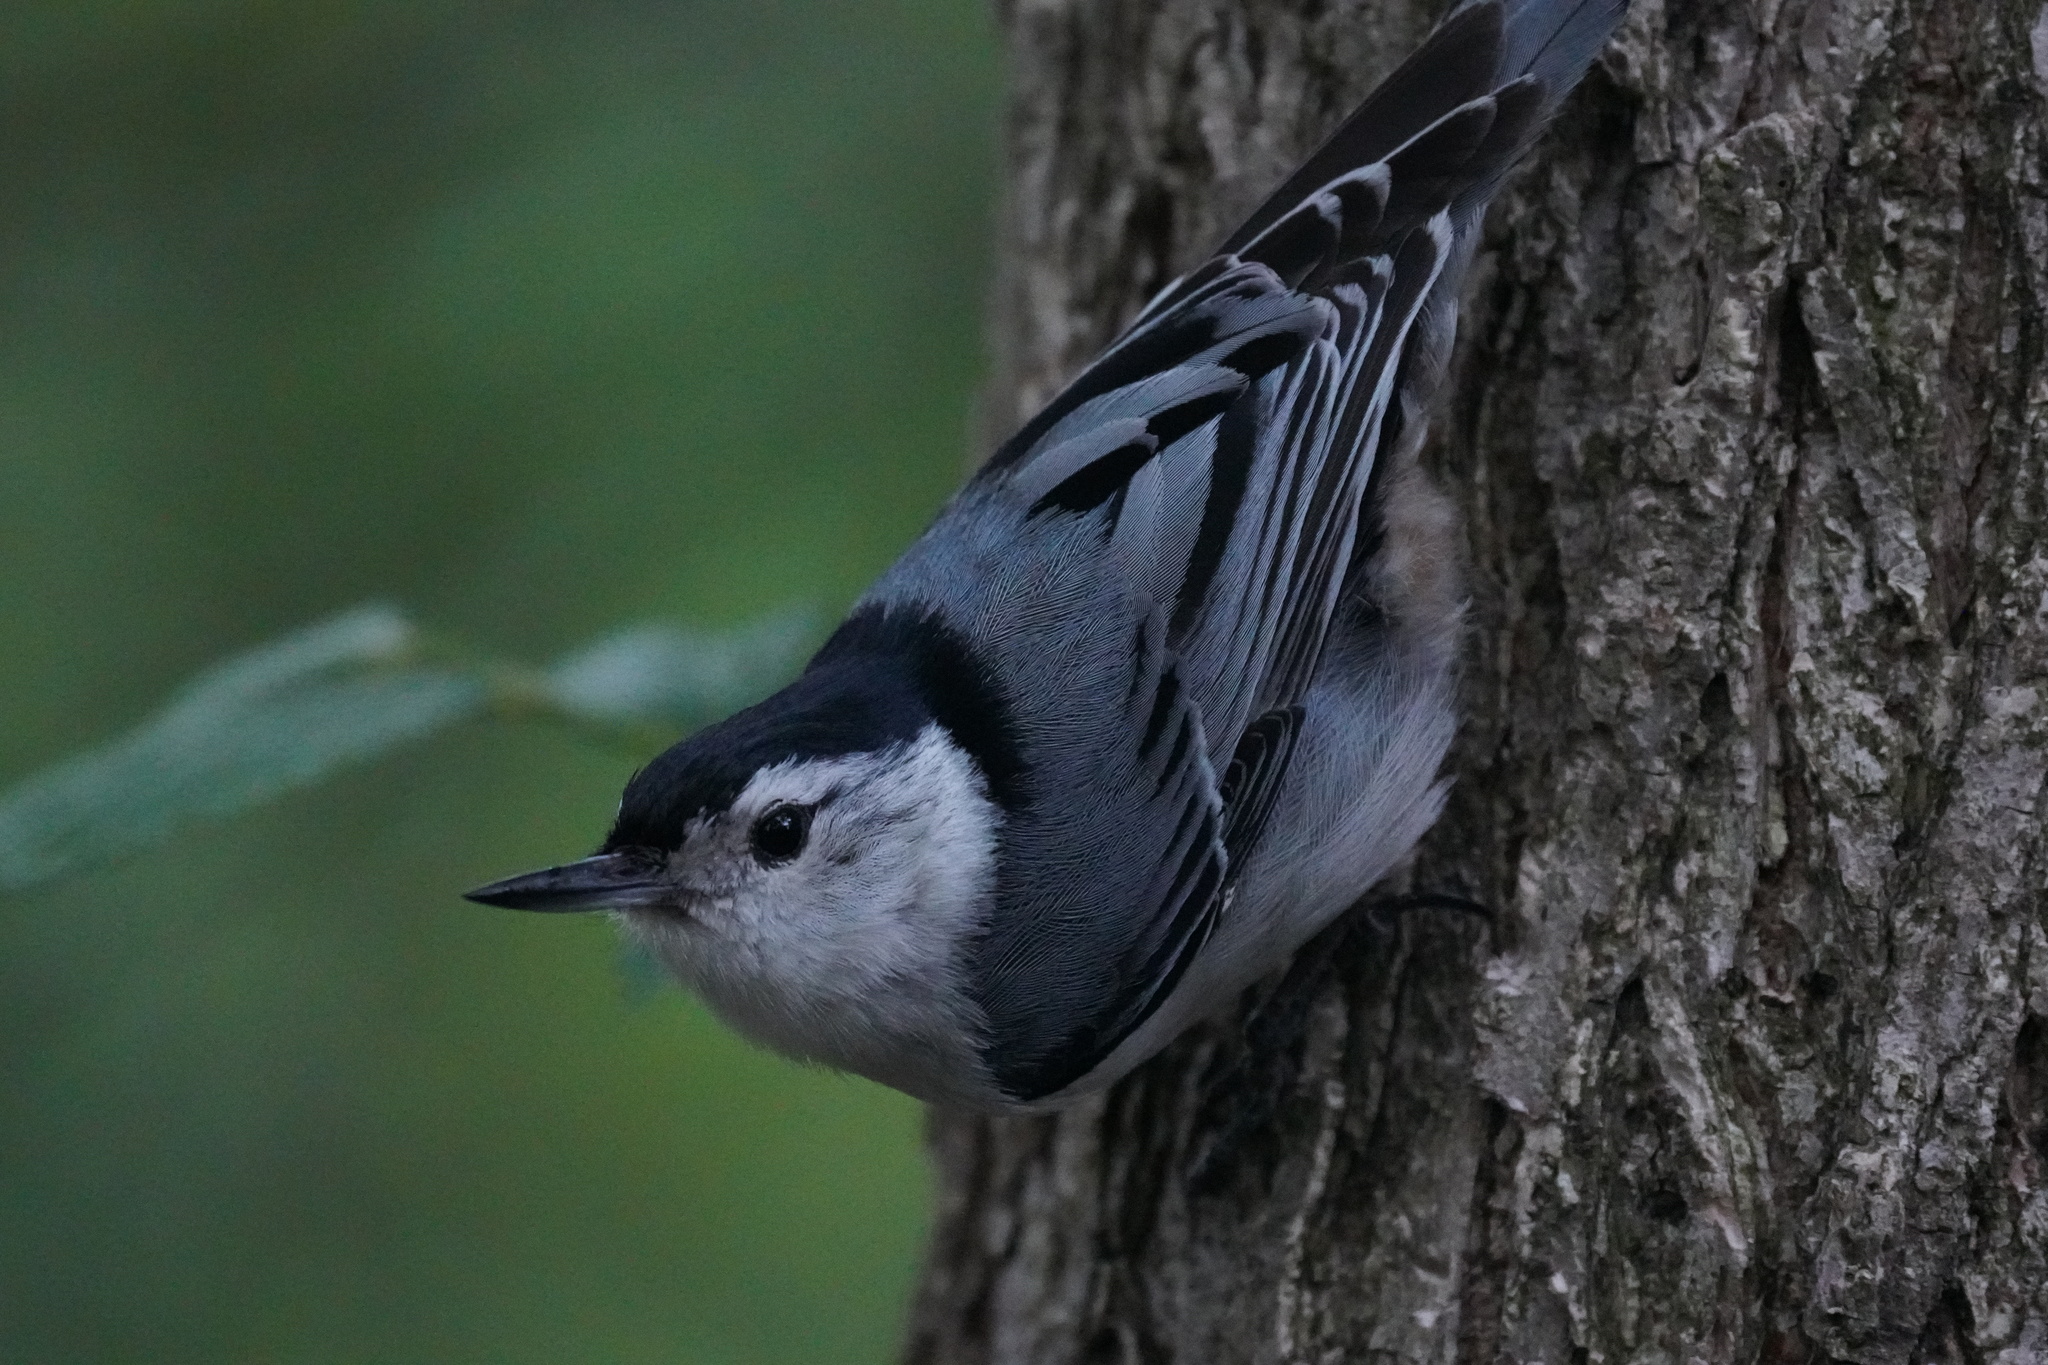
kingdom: Animalia
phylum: Chordata
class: Aves
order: Passeriformes
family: Sittidae
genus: Sitta
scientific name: Sitta carolinensis
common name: White-breasted nuthatch
